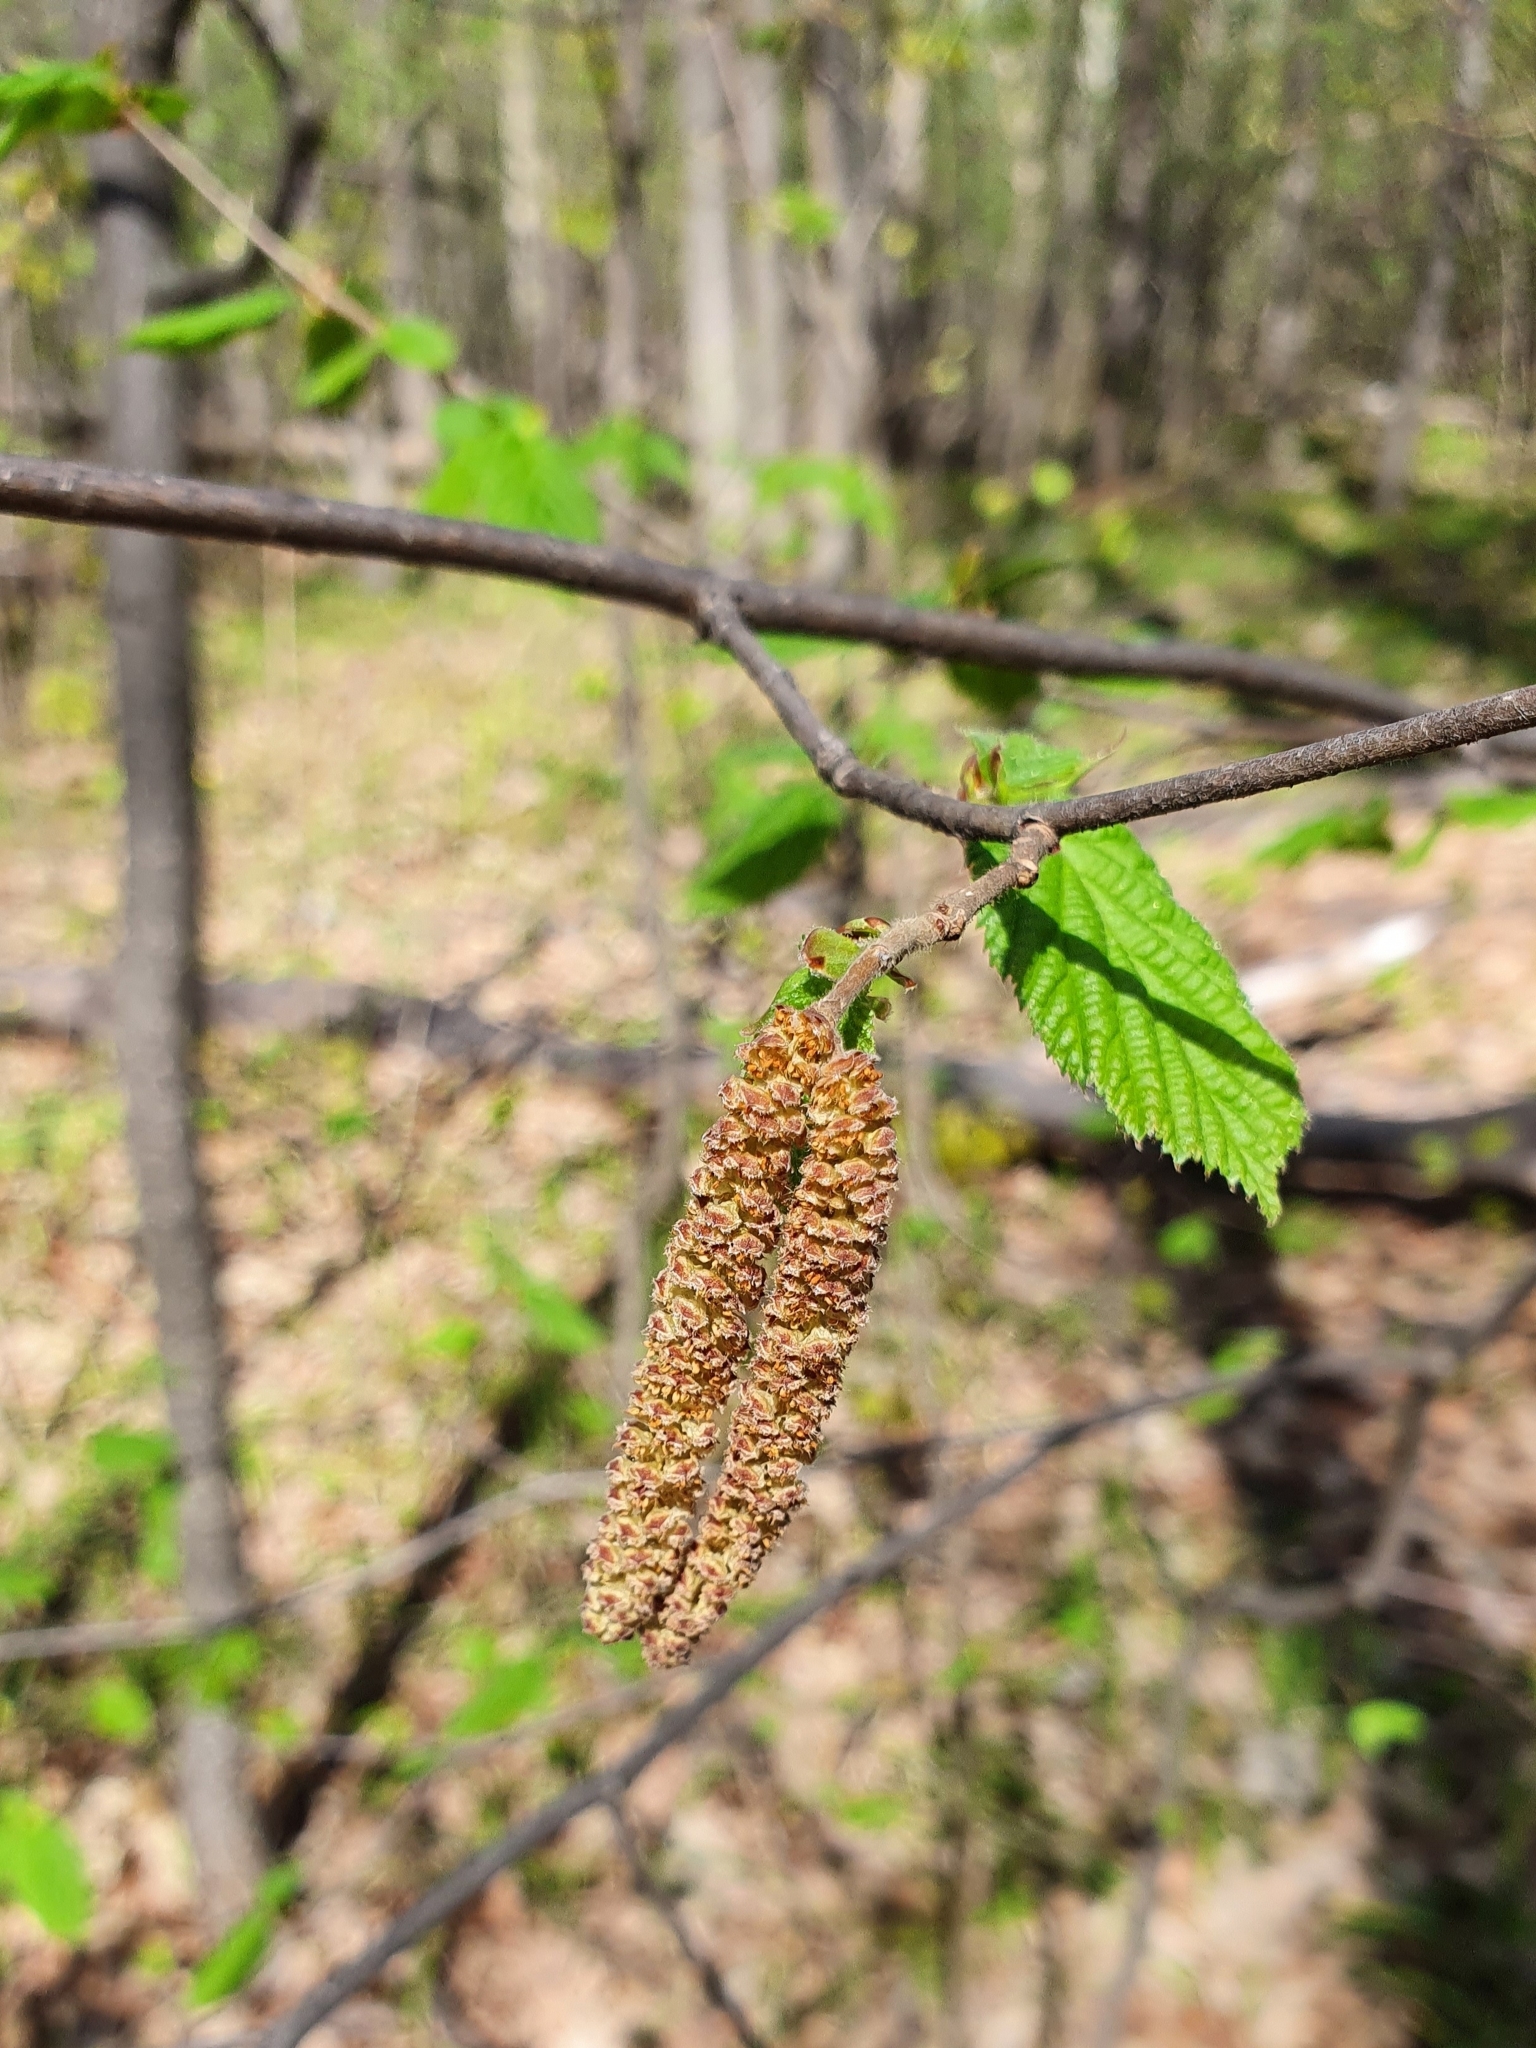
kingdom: Plantae
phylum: Tracheophyta
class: Magnoliopsida
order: Fagales
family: Betulaceae
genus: Corylus
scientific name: Corylus avellana
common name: European hazel
